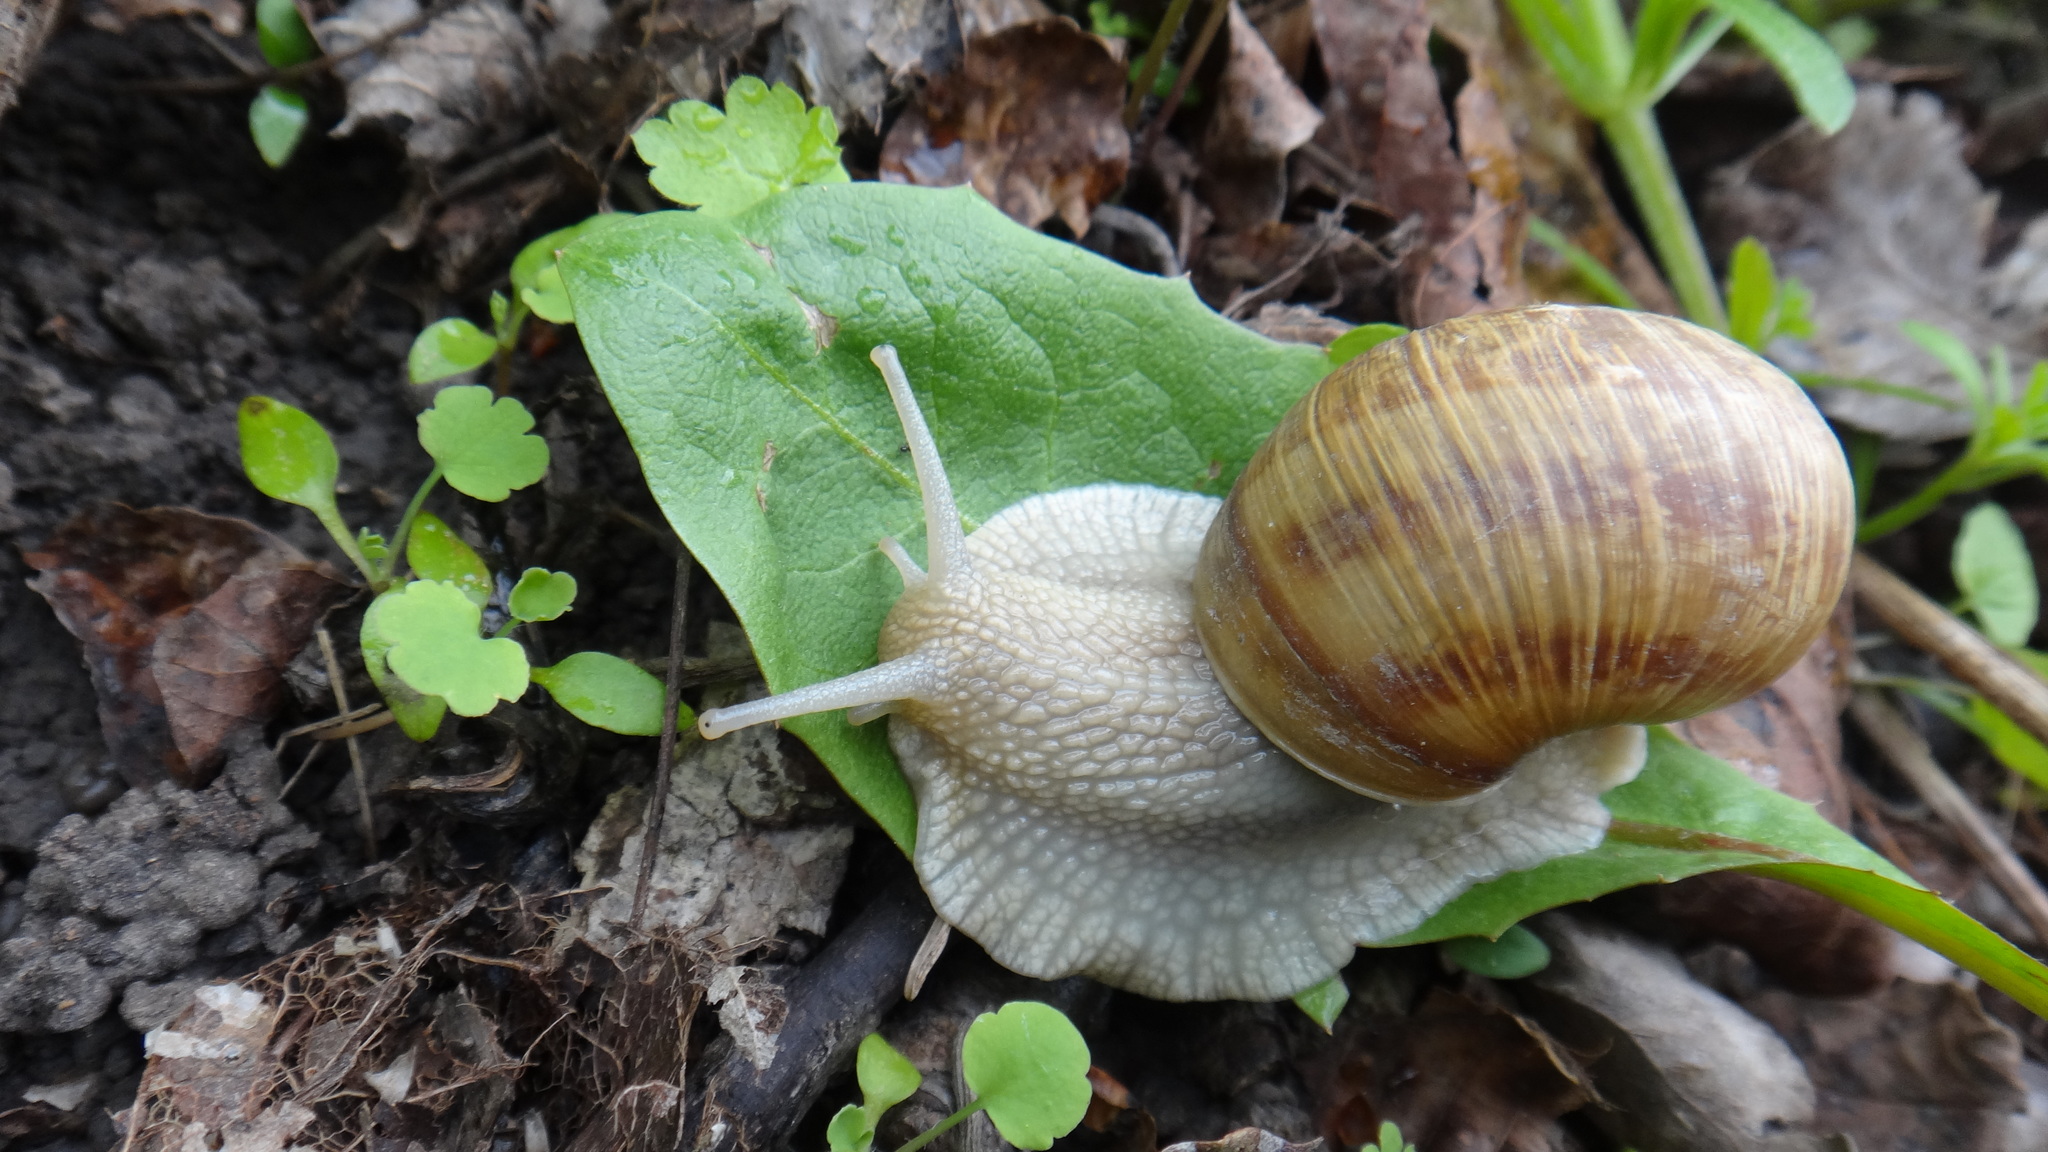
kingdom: Animalia
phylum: Mollusca
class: Gastropoda
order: Stylommatophora
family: Helicidae
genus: Helix
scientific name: Helix pomatia
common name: Roman snail
